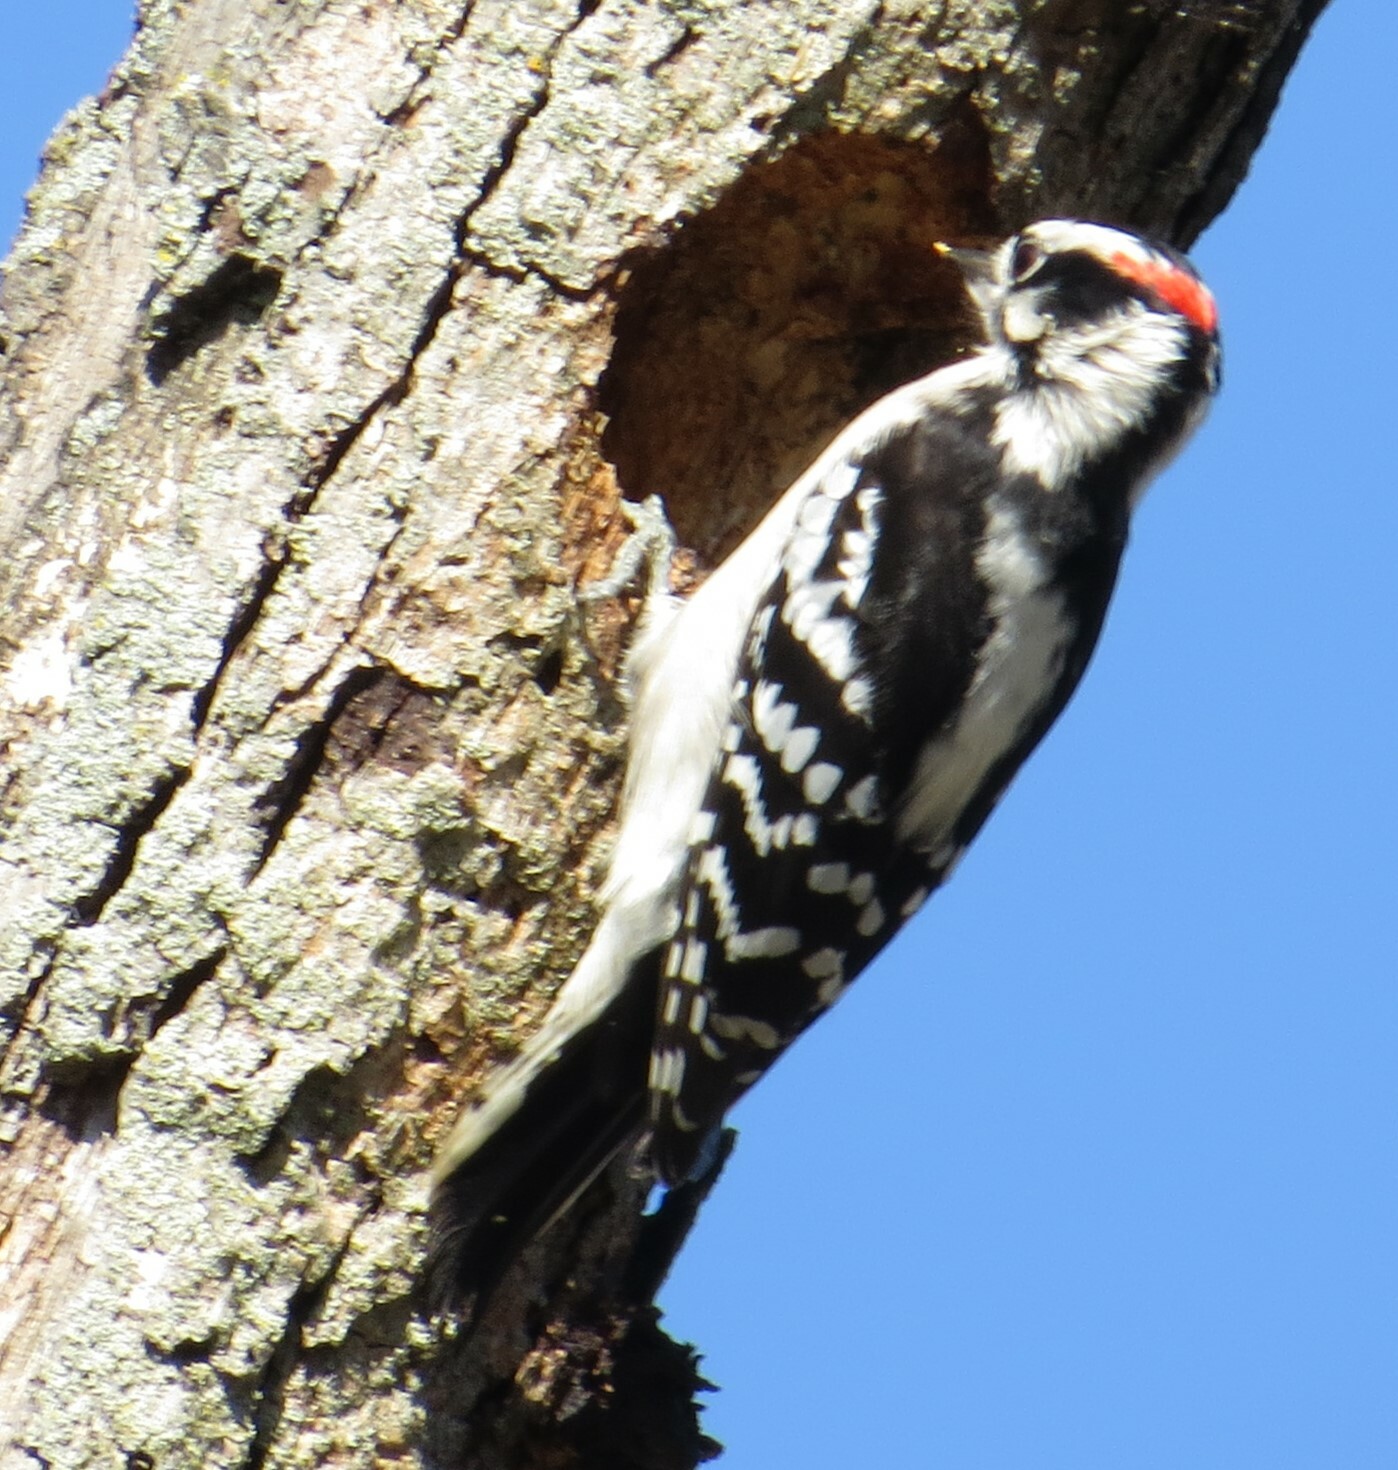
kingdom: Animalia
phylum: Chordata
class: Aves
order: Piciformes
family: Picidae
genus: Dryobates
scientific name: Dryobates pubescens
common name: Downy woodpecker
